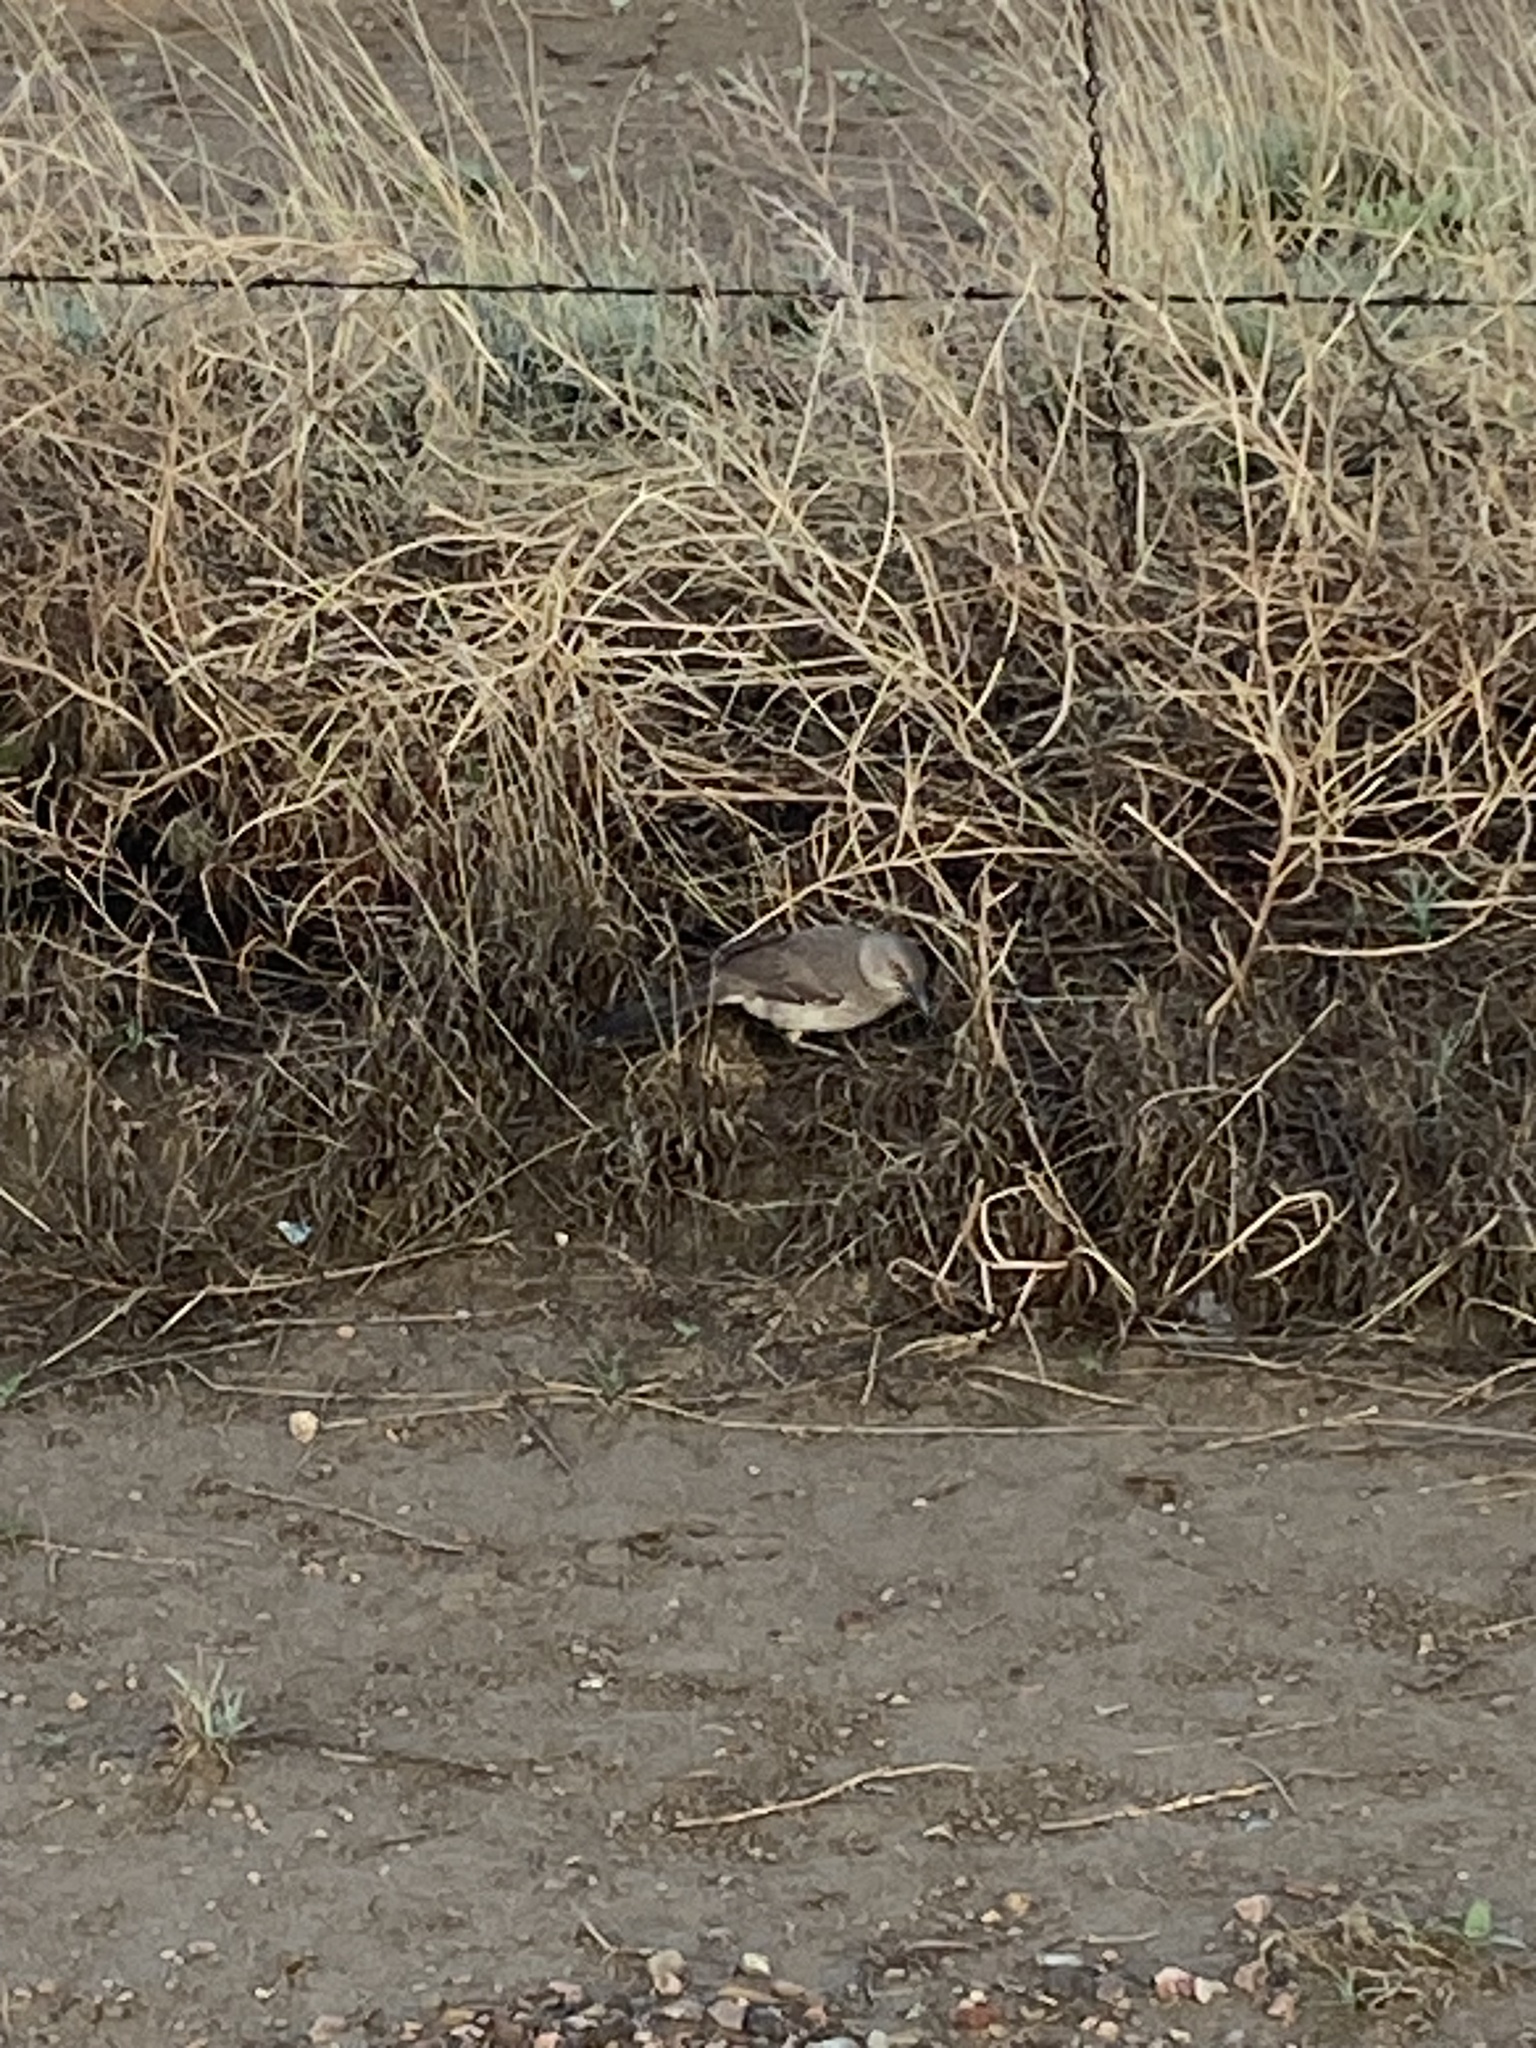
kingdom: Animalia
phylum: Chordata
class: Aves
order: Passeriformes
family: Mimidae
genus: Toxostoma
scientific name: Toxostoma curvirostre
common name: Curve-billed thrasher
